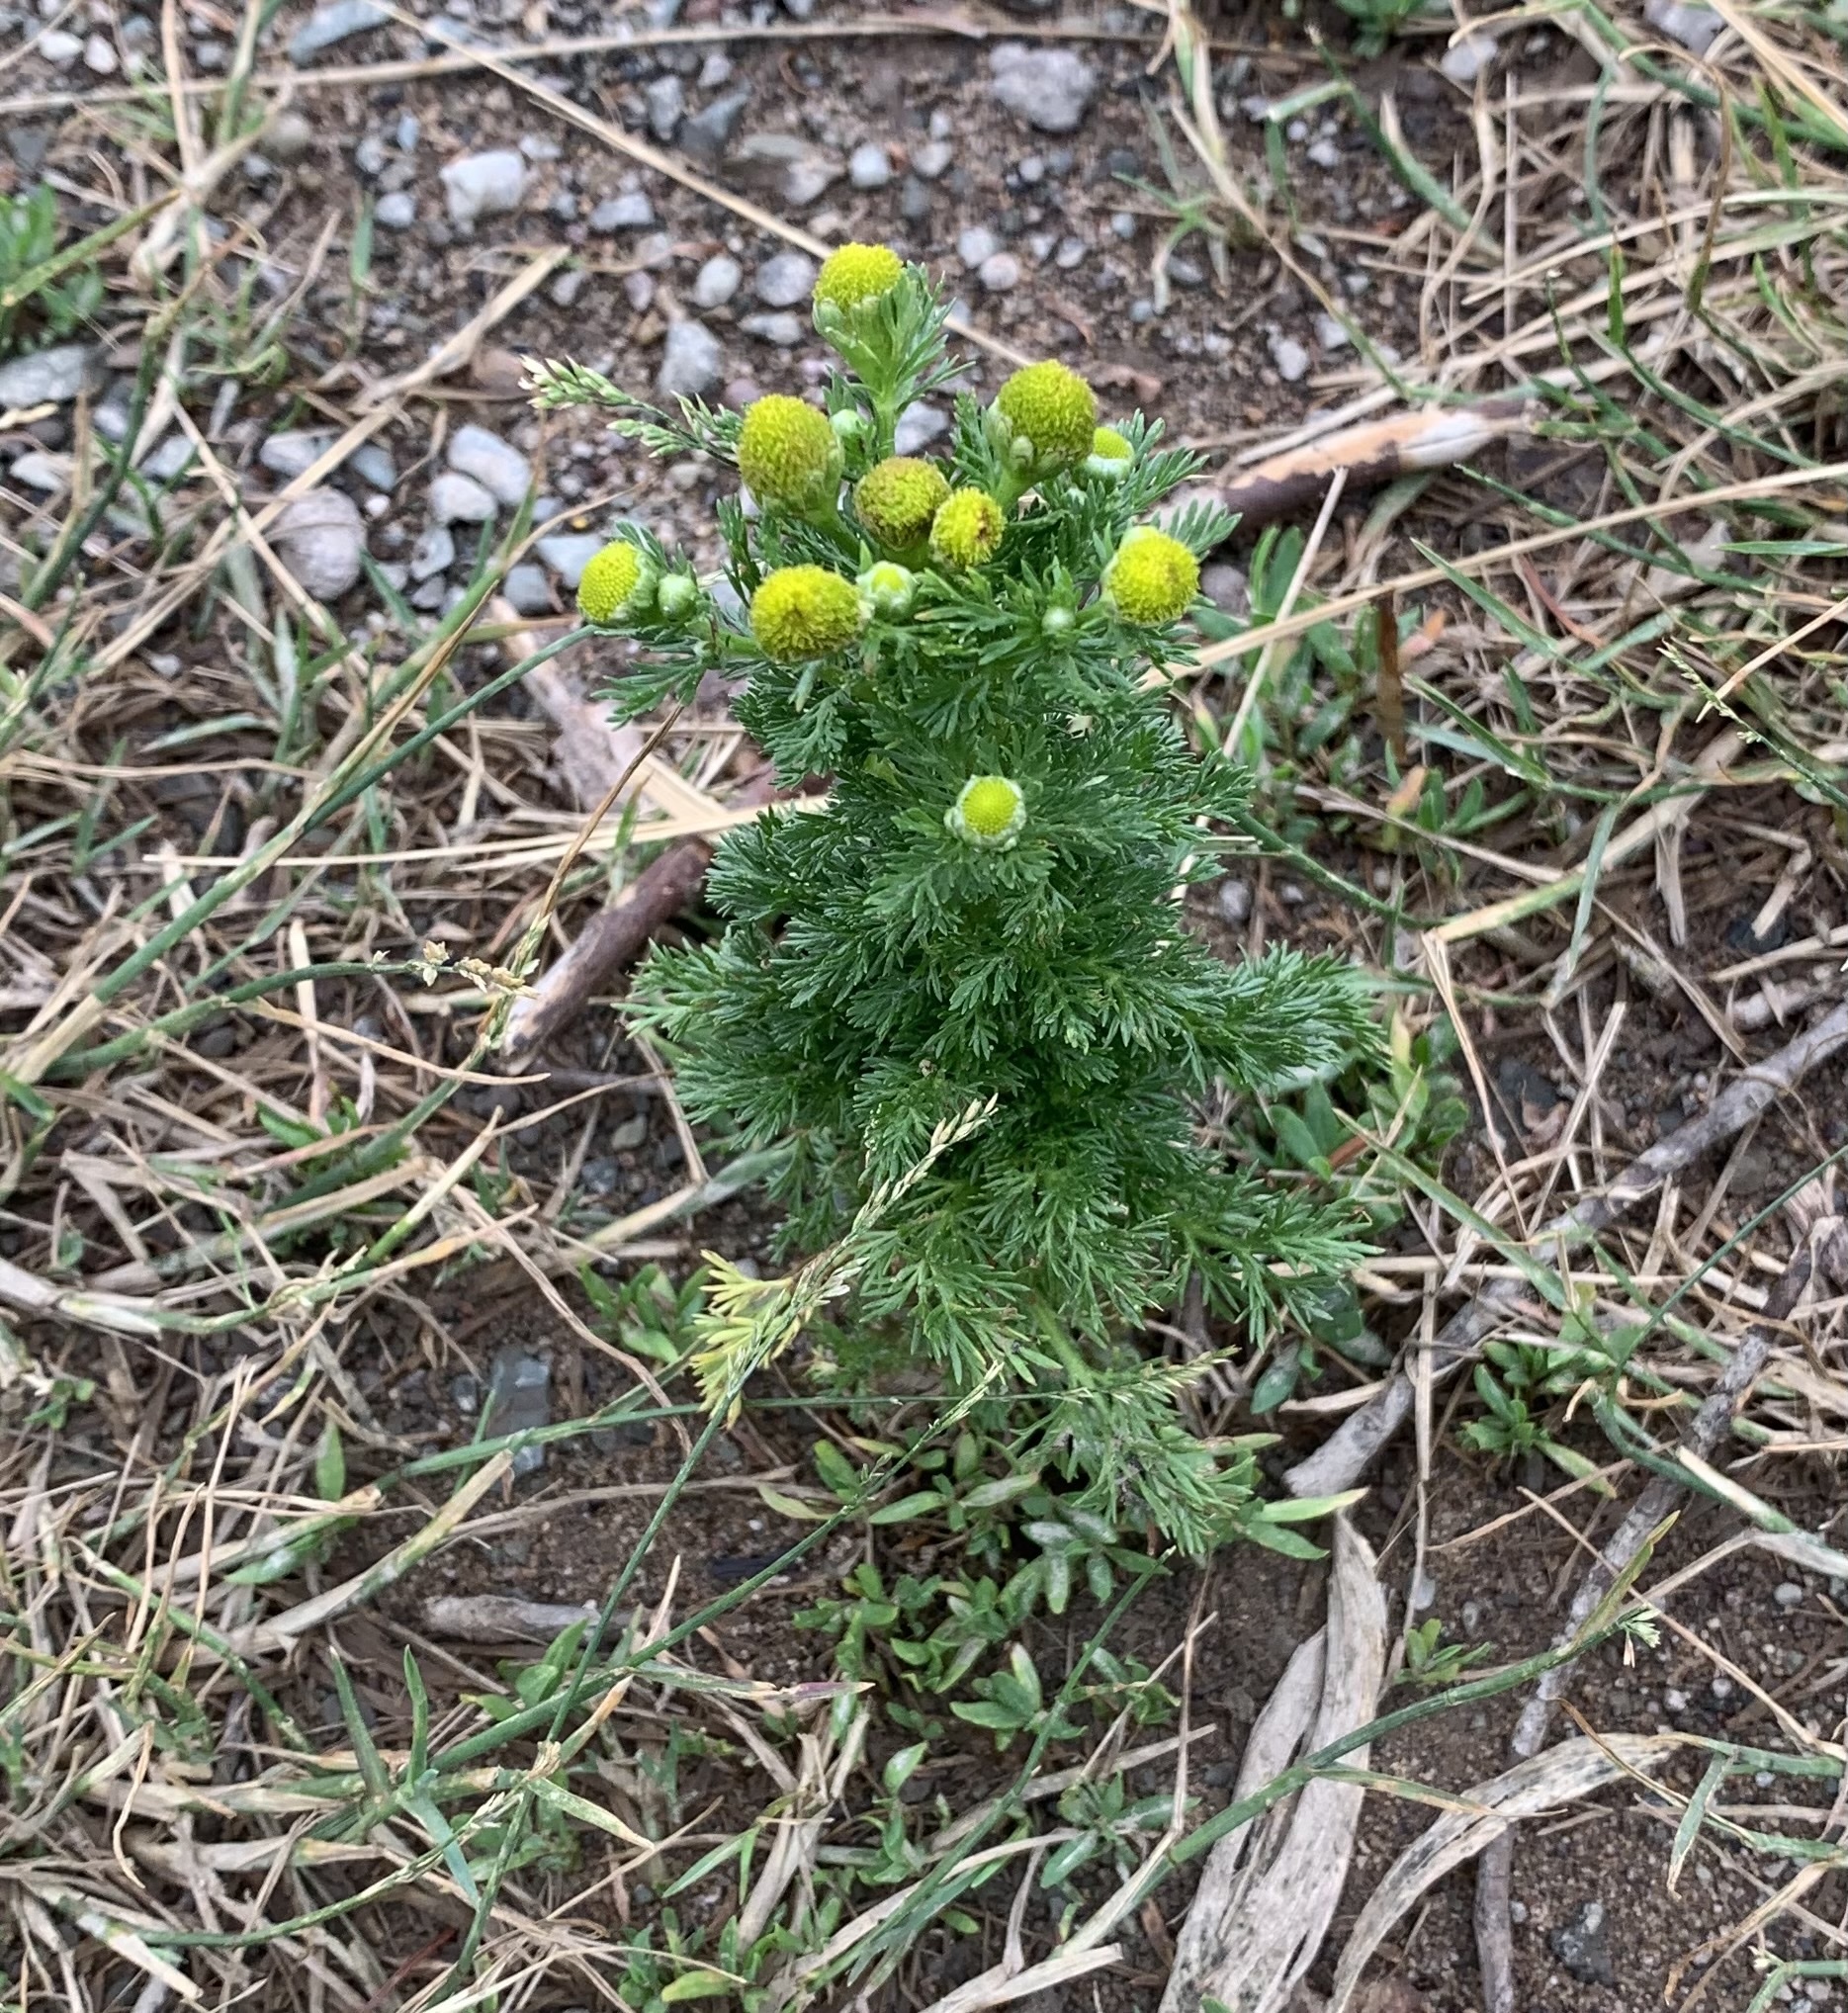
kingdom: Plantae
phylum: Tracheophyta
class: Magnoliopsida
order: Asterales
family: Asteraceae
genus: Matricaria
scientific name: Matricaria discoidea
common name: Disc mayweed
